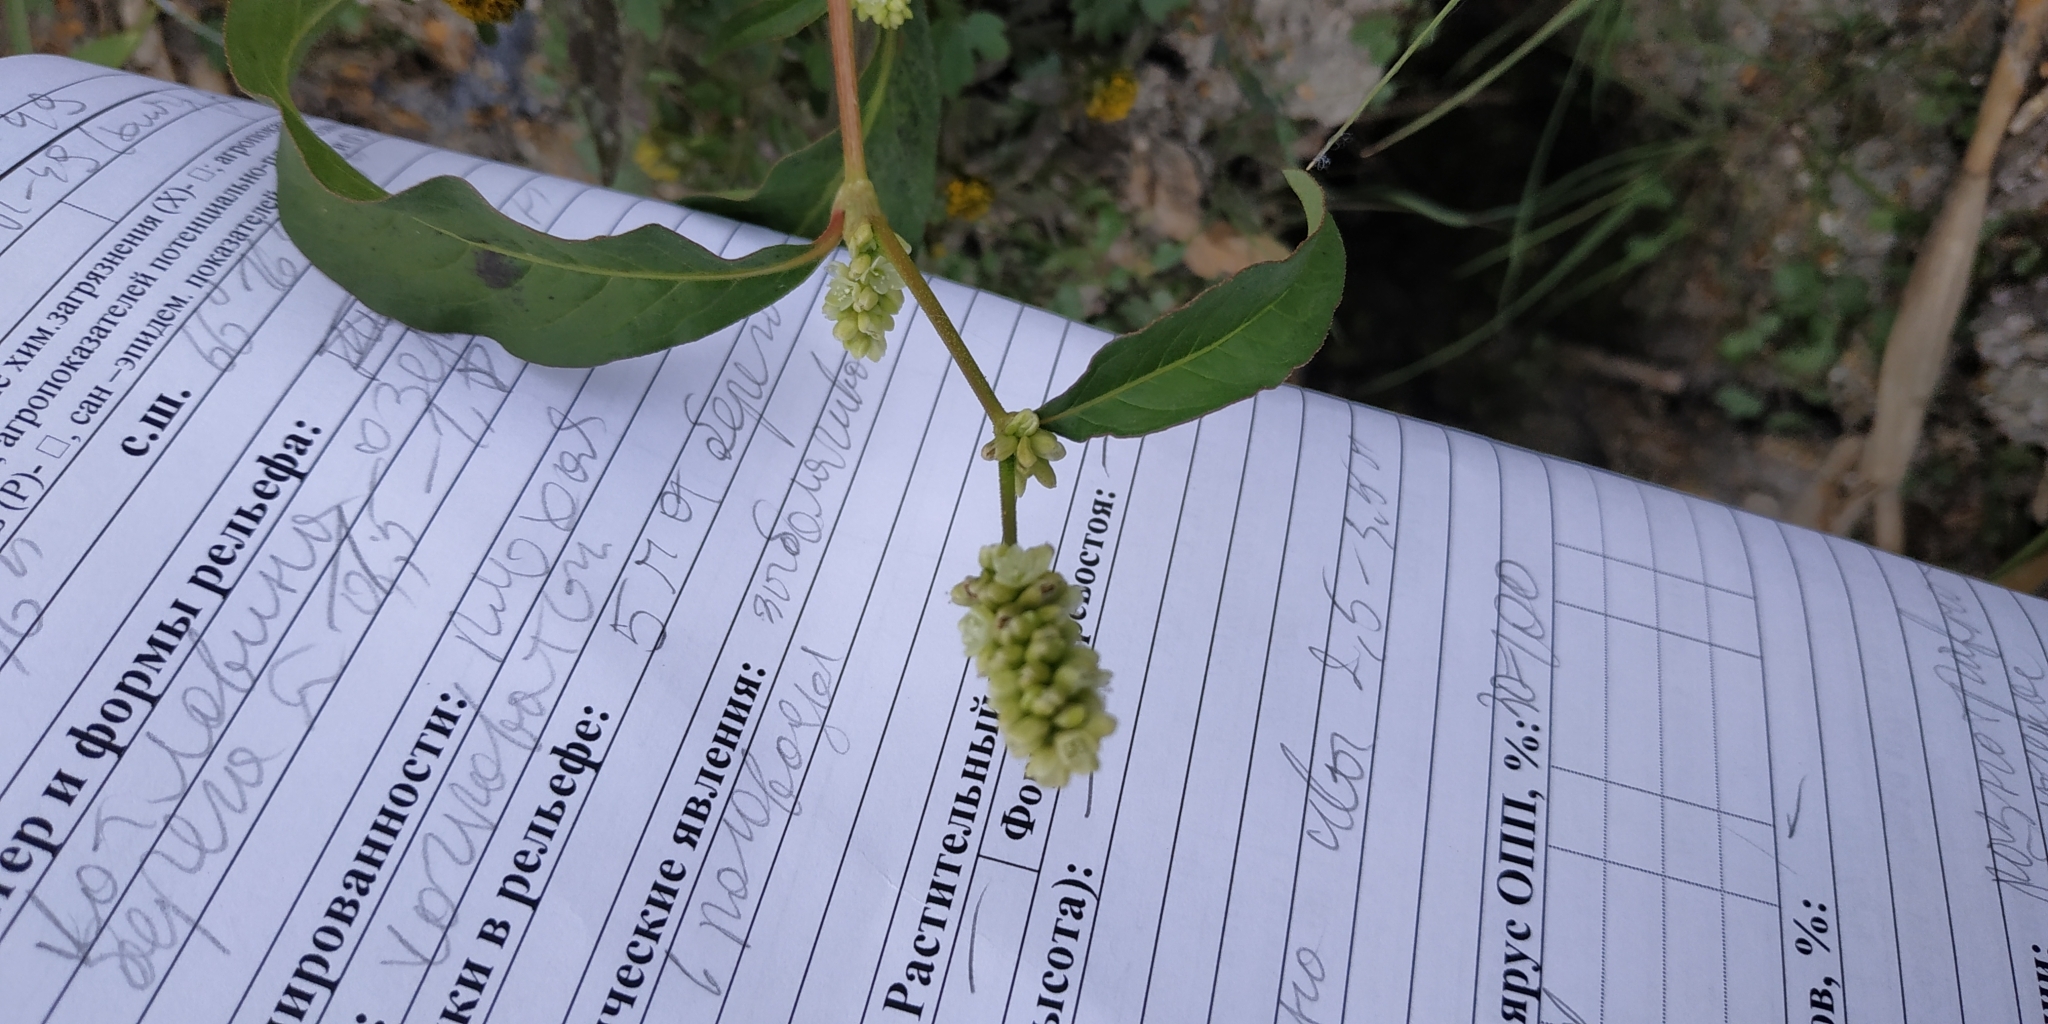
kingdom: Plantae
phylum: Tracheophyta
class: Magnoliopsida
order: Caryophyllales
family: Polygonaceae
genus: Persicaria
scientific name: Persicaria lapathifolia
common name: Curlytop knotweed
